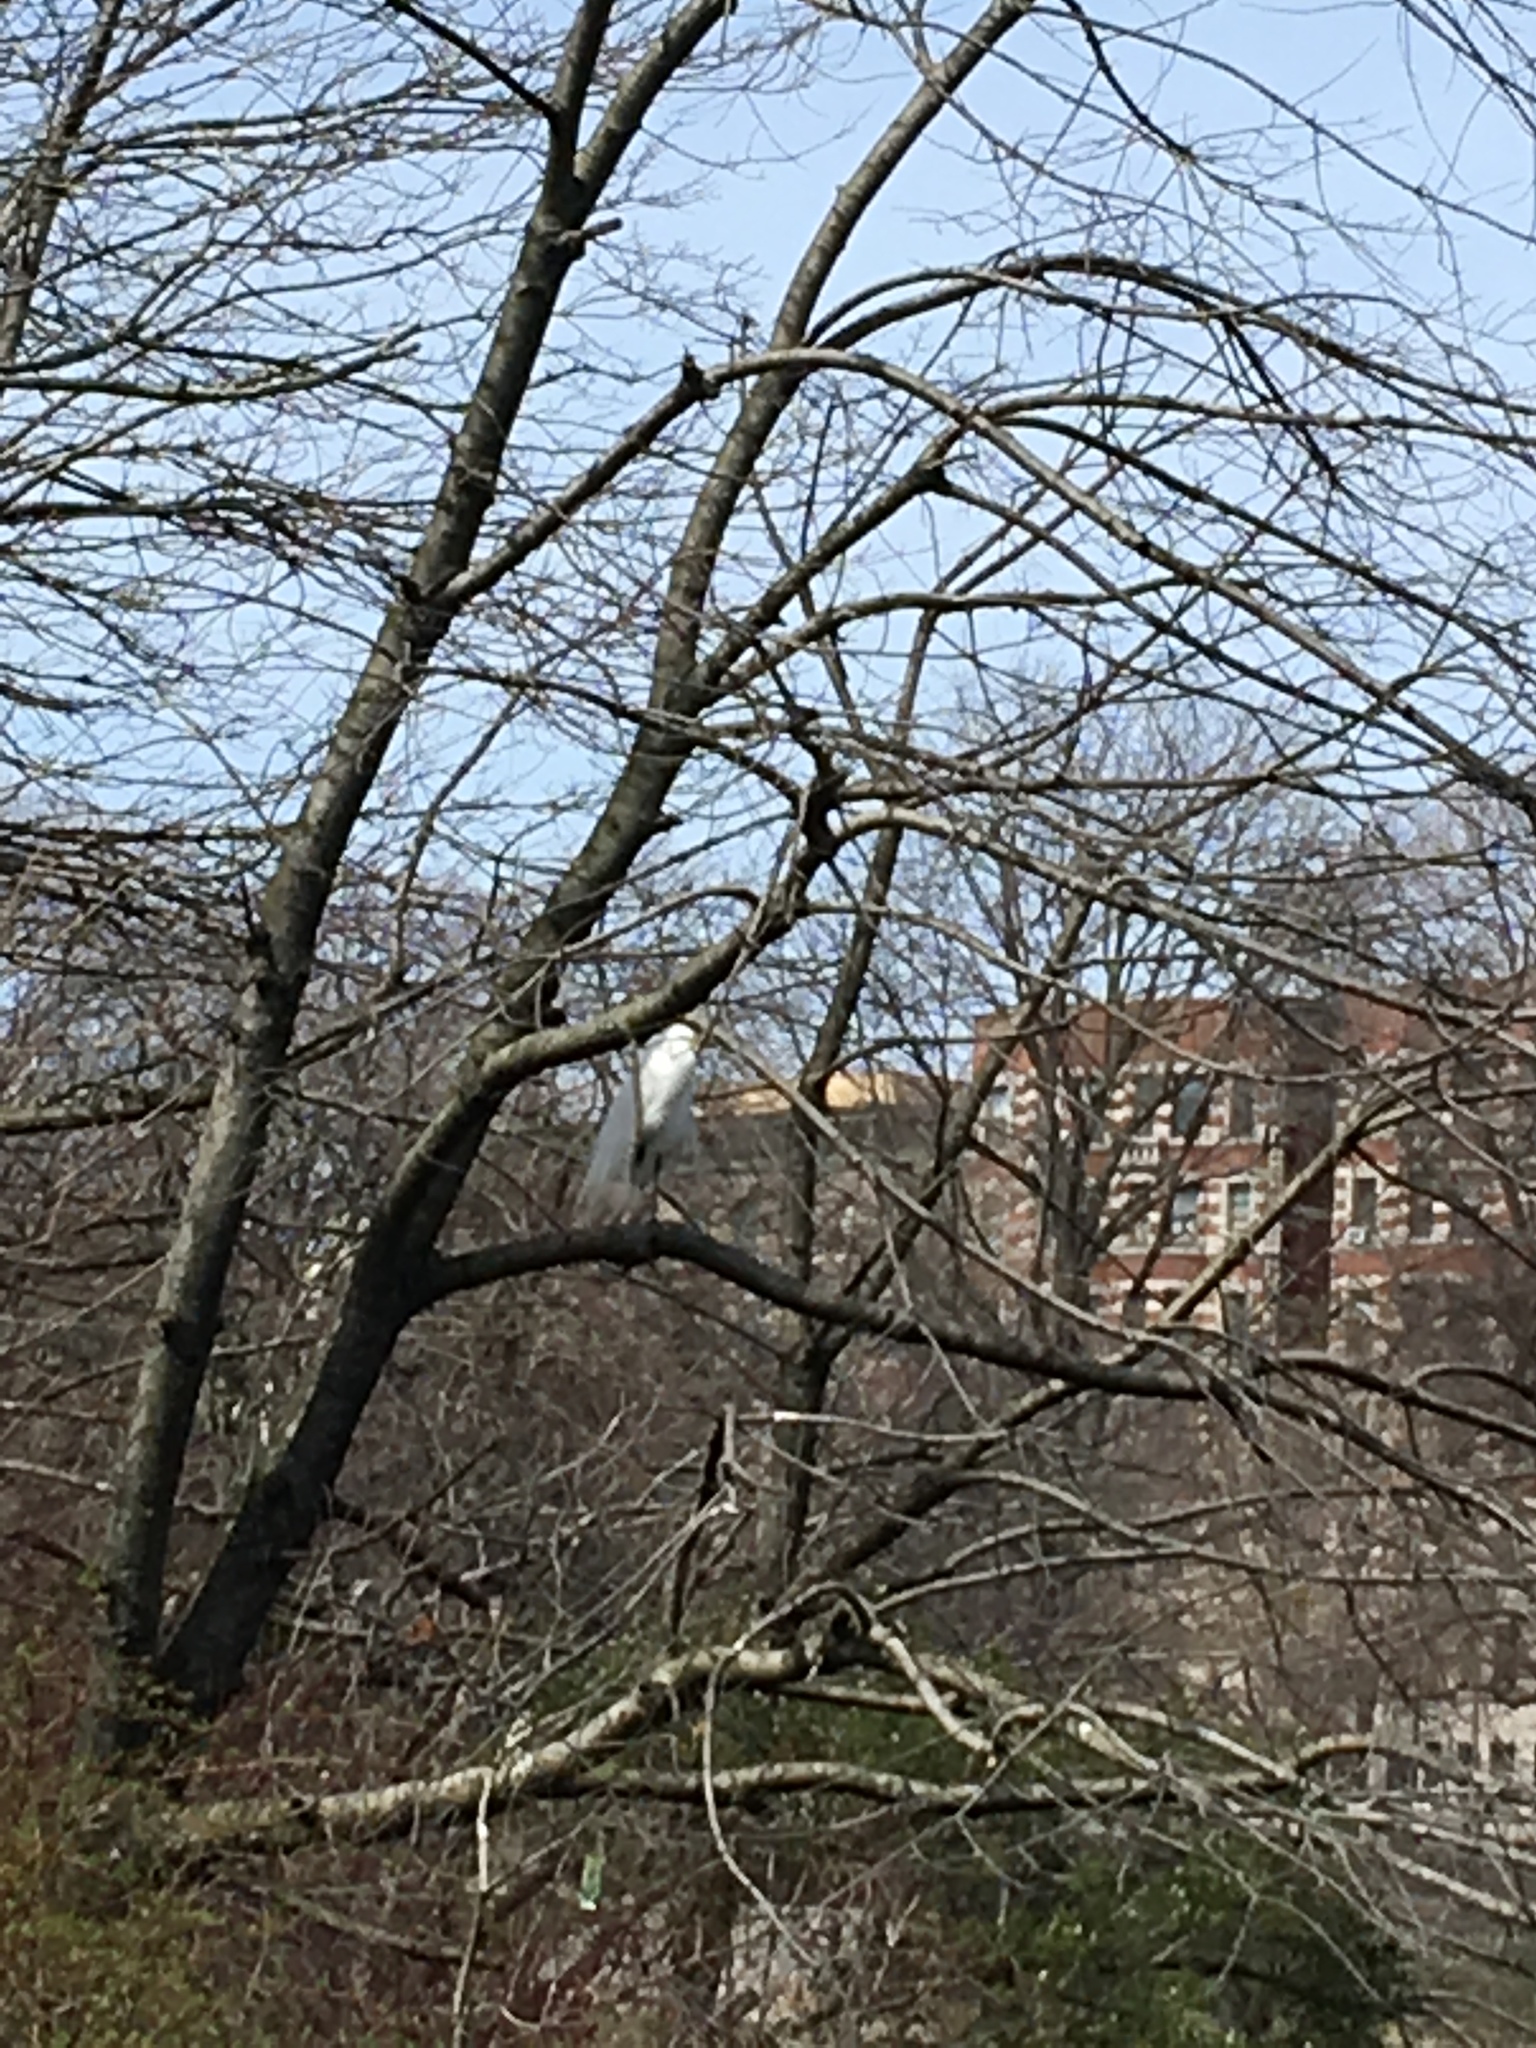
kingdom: Animalia
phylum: Chordata
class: Aves
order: Pelecaniformes
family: Ardeidae
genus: Ardea
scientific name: Ardea alba
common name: Great egret
